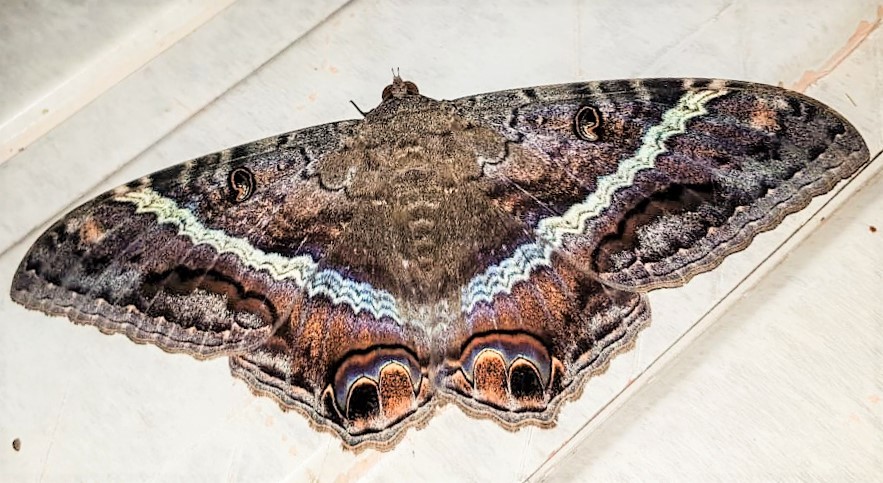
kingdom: Animalia
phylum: Arthropoda
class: Insecta
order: Lepidoptera
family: Erebidae
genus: Ascalapha
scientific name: Ascalapha odorata
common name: Black witch
